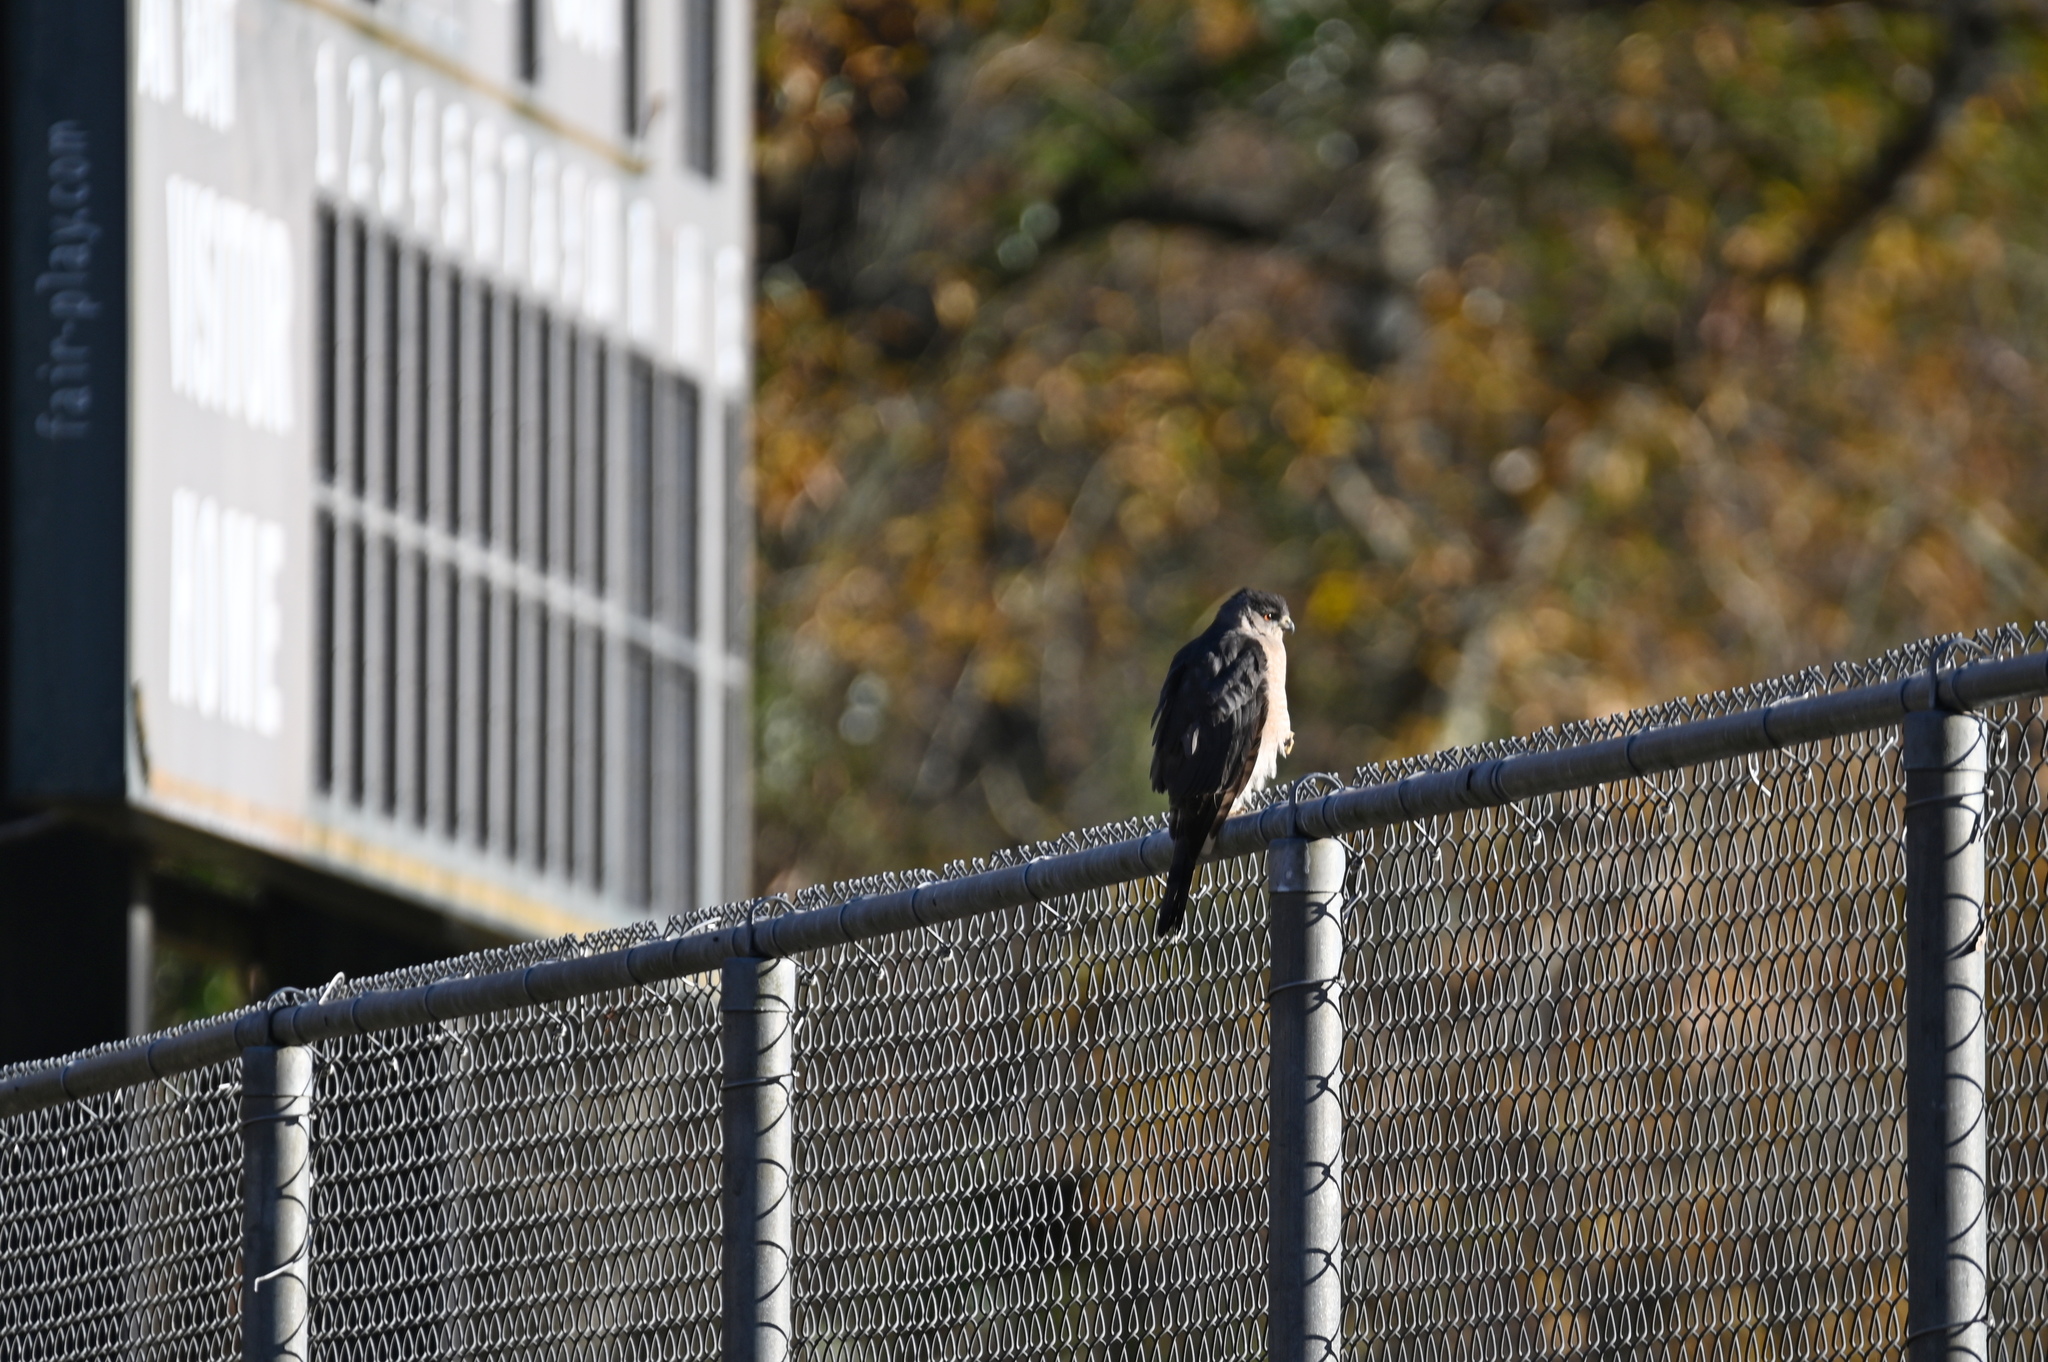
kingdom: Animalia
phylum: Chordata
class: Aves
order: Accipitriformes
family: Accipitridae
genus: Accipiter
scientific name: Accipiter cooperii
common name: Cooper's hawk
